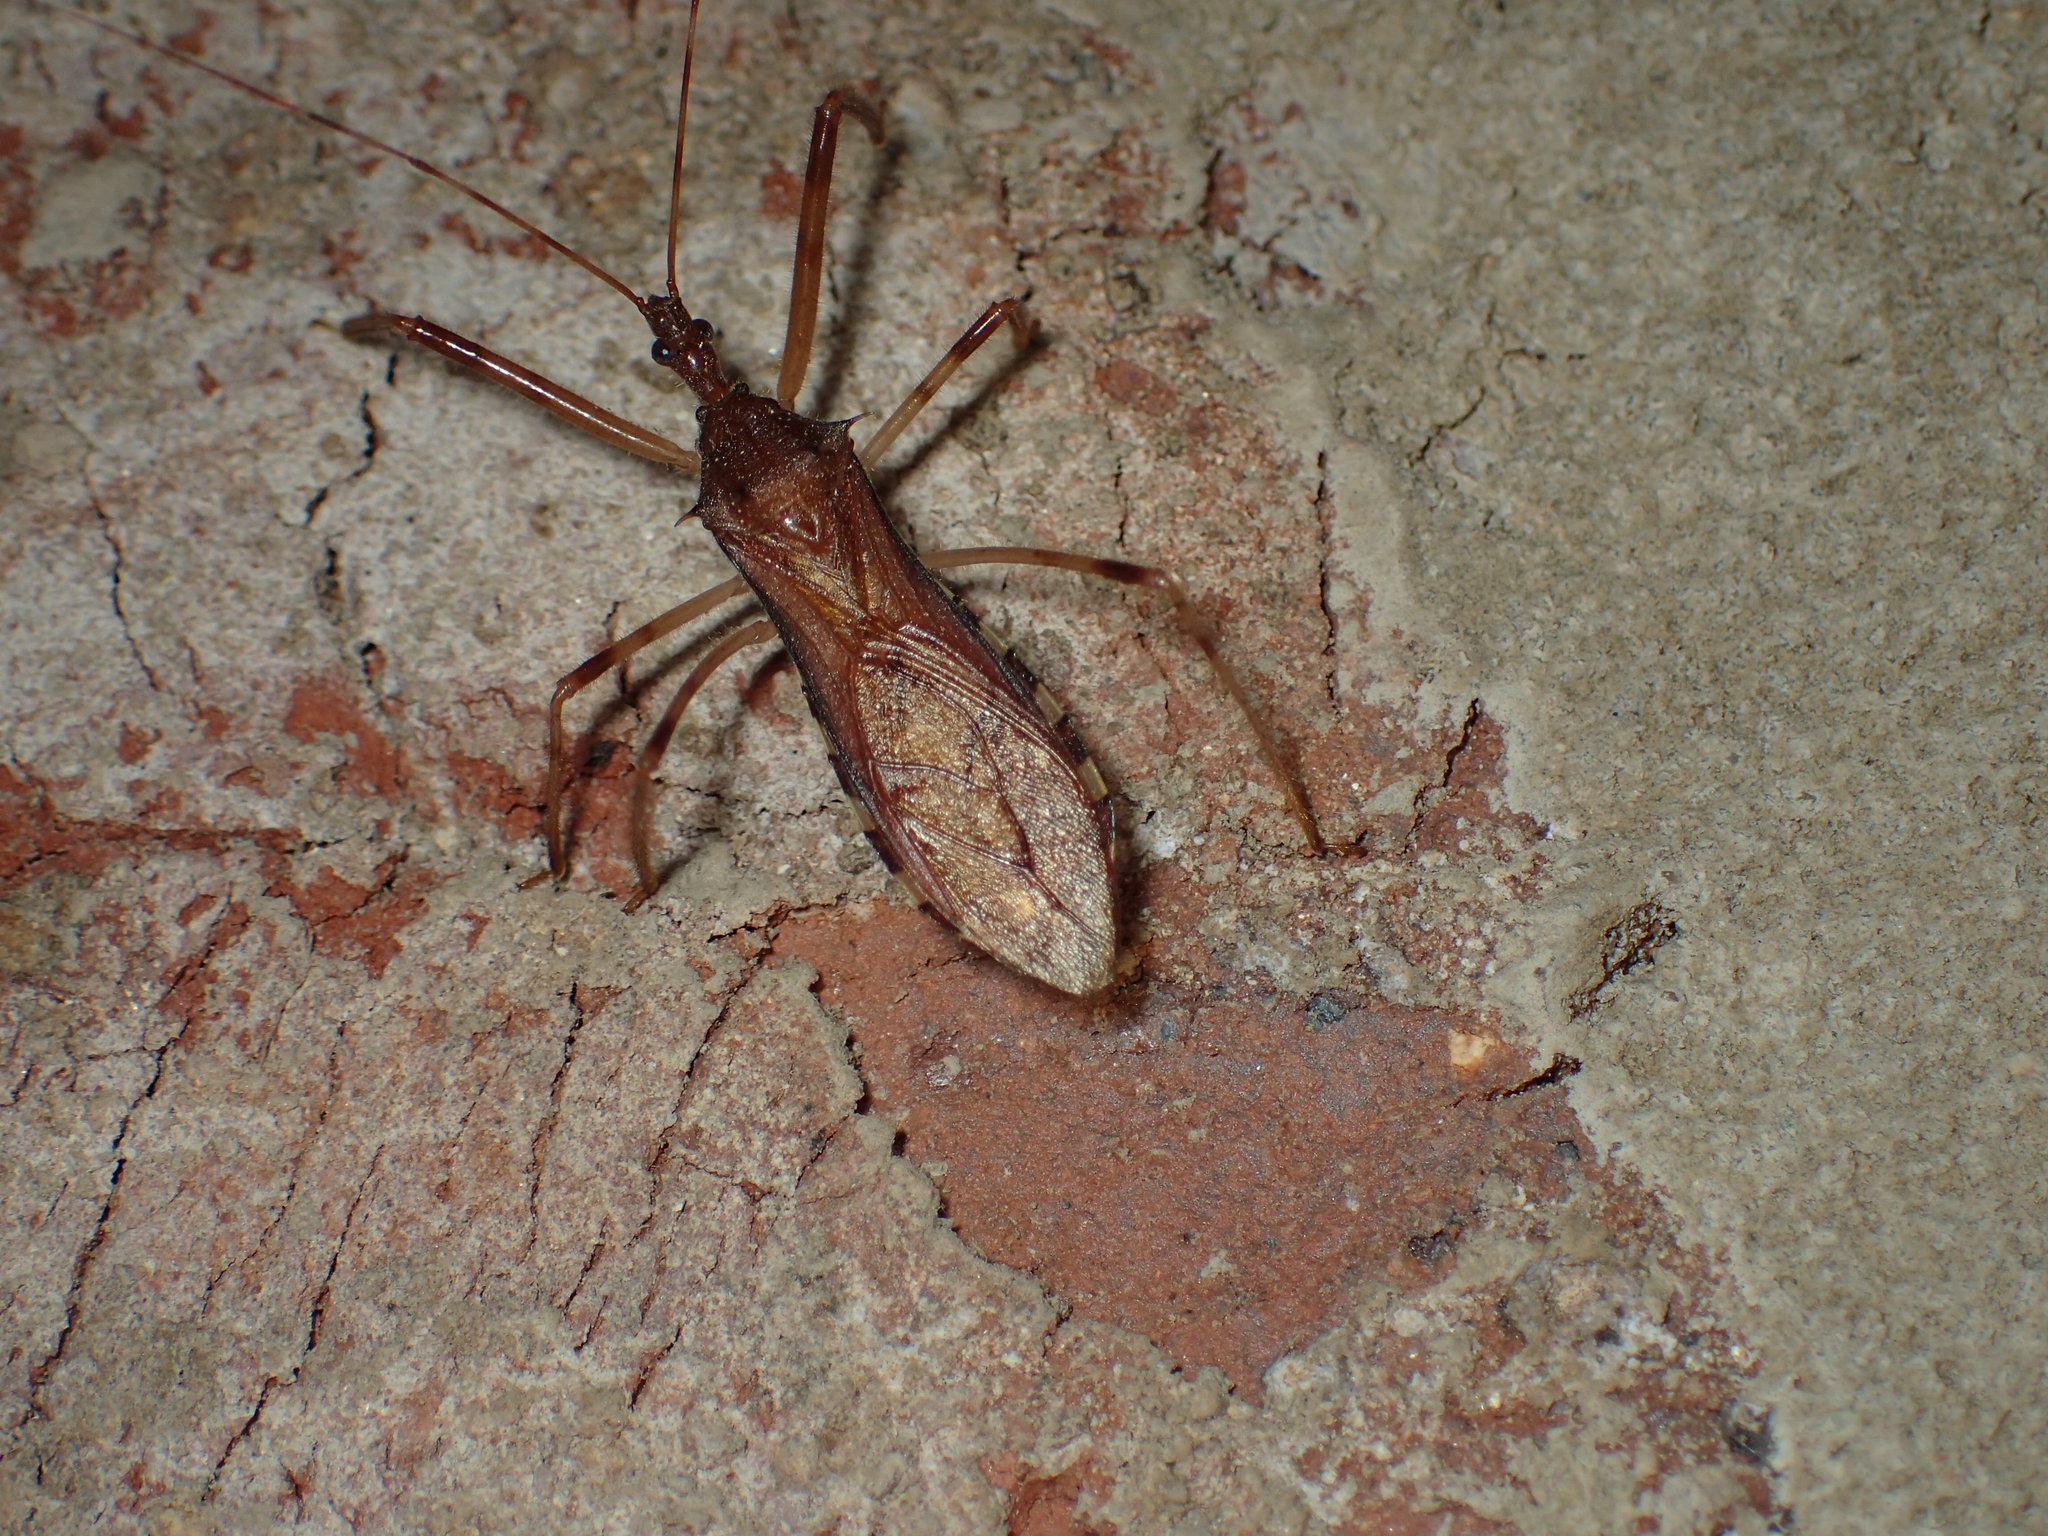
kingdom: Animalia
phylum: Arthropoda
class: Insecta
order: Hemiptera
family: Reduviidae
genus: Rocconota
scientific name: Rocconota annulicornis
